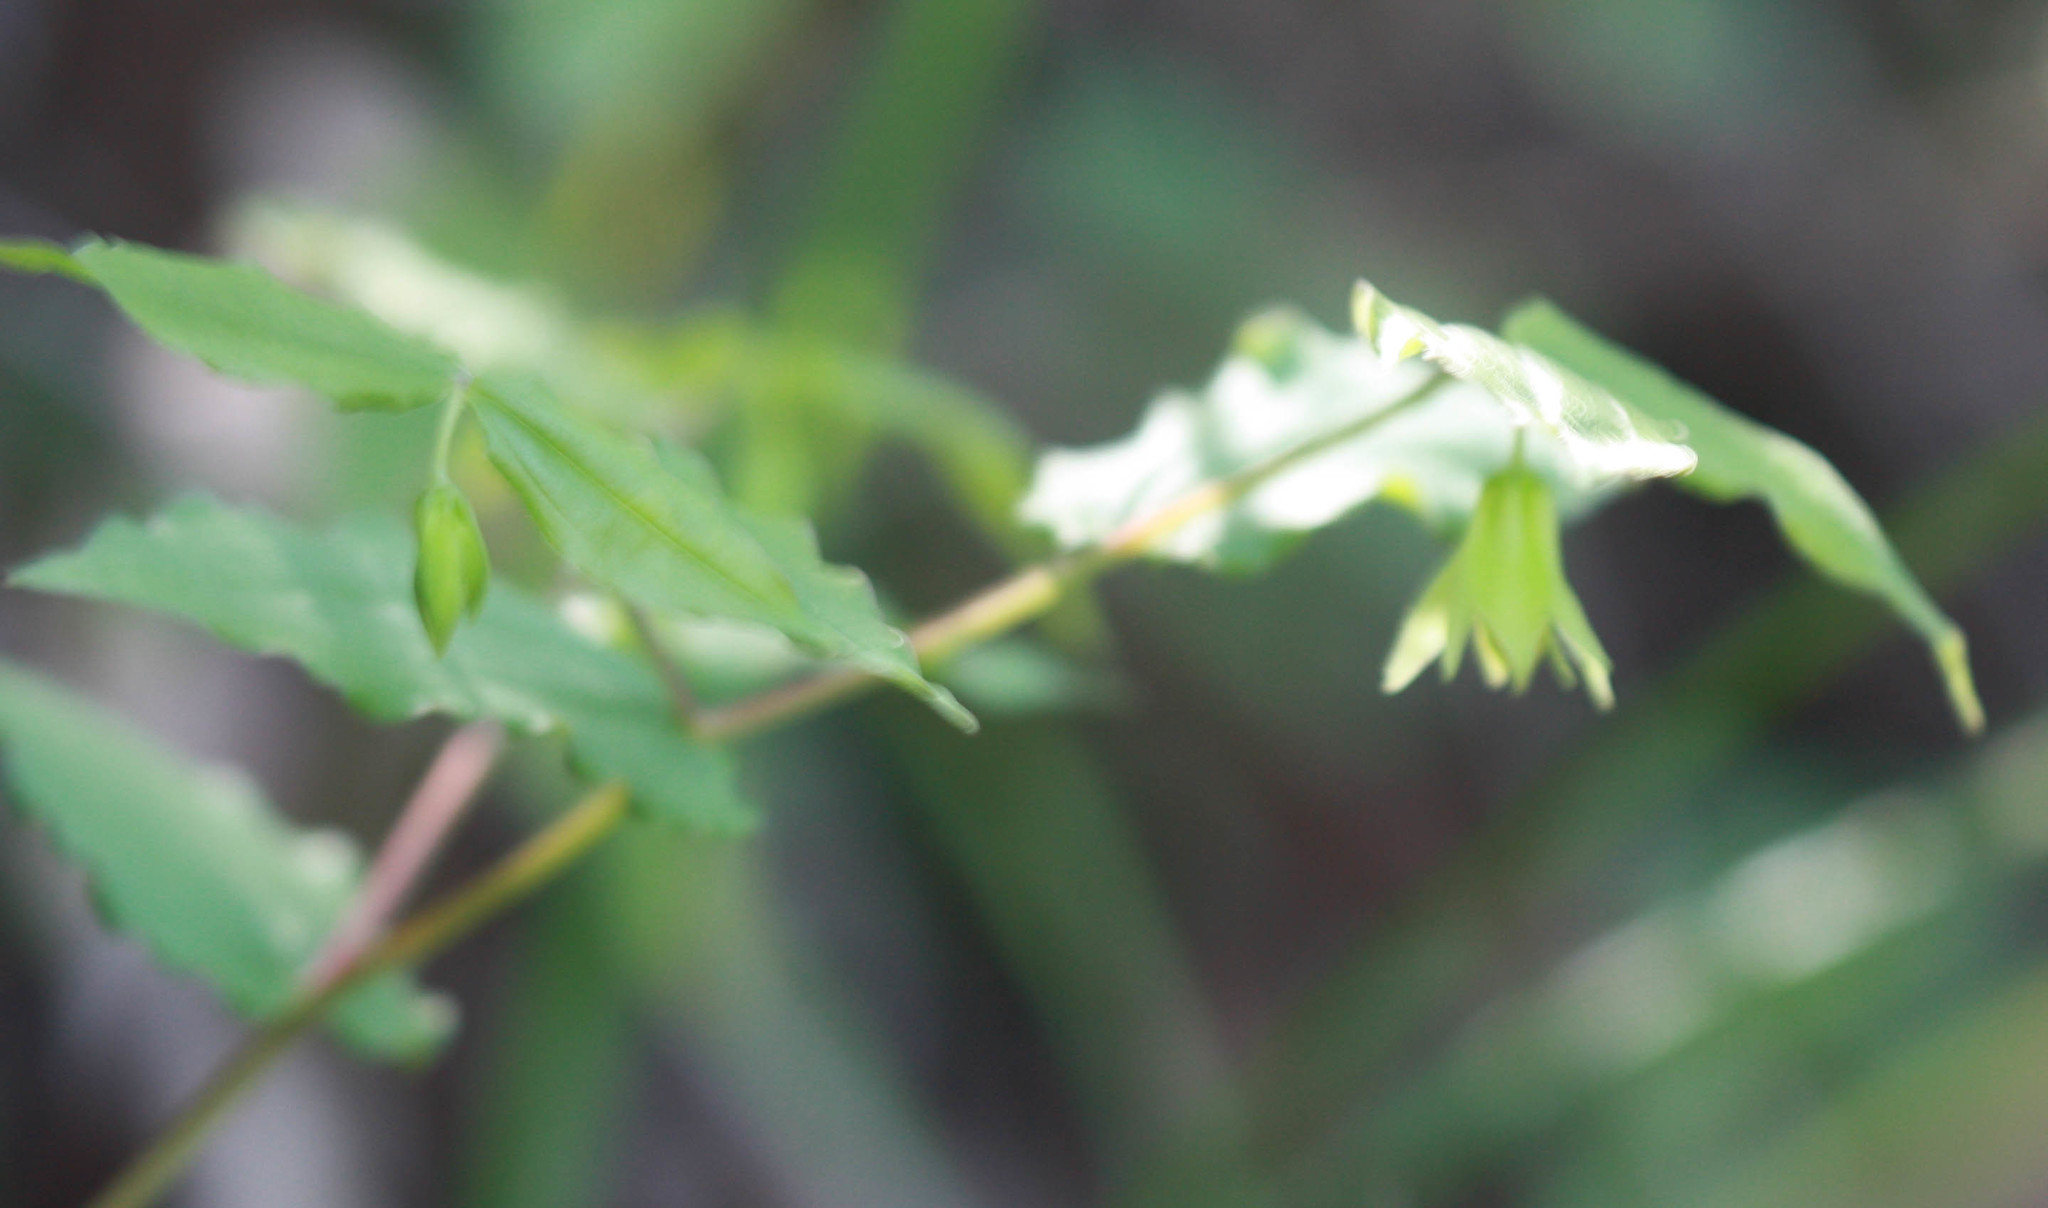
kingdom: Plantae
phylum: Tracheophyta
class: Liliopsida
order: Liliales
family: Liliaceae
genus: Prosartes
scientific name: Prosartes hookeri
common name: Fairy-bells
